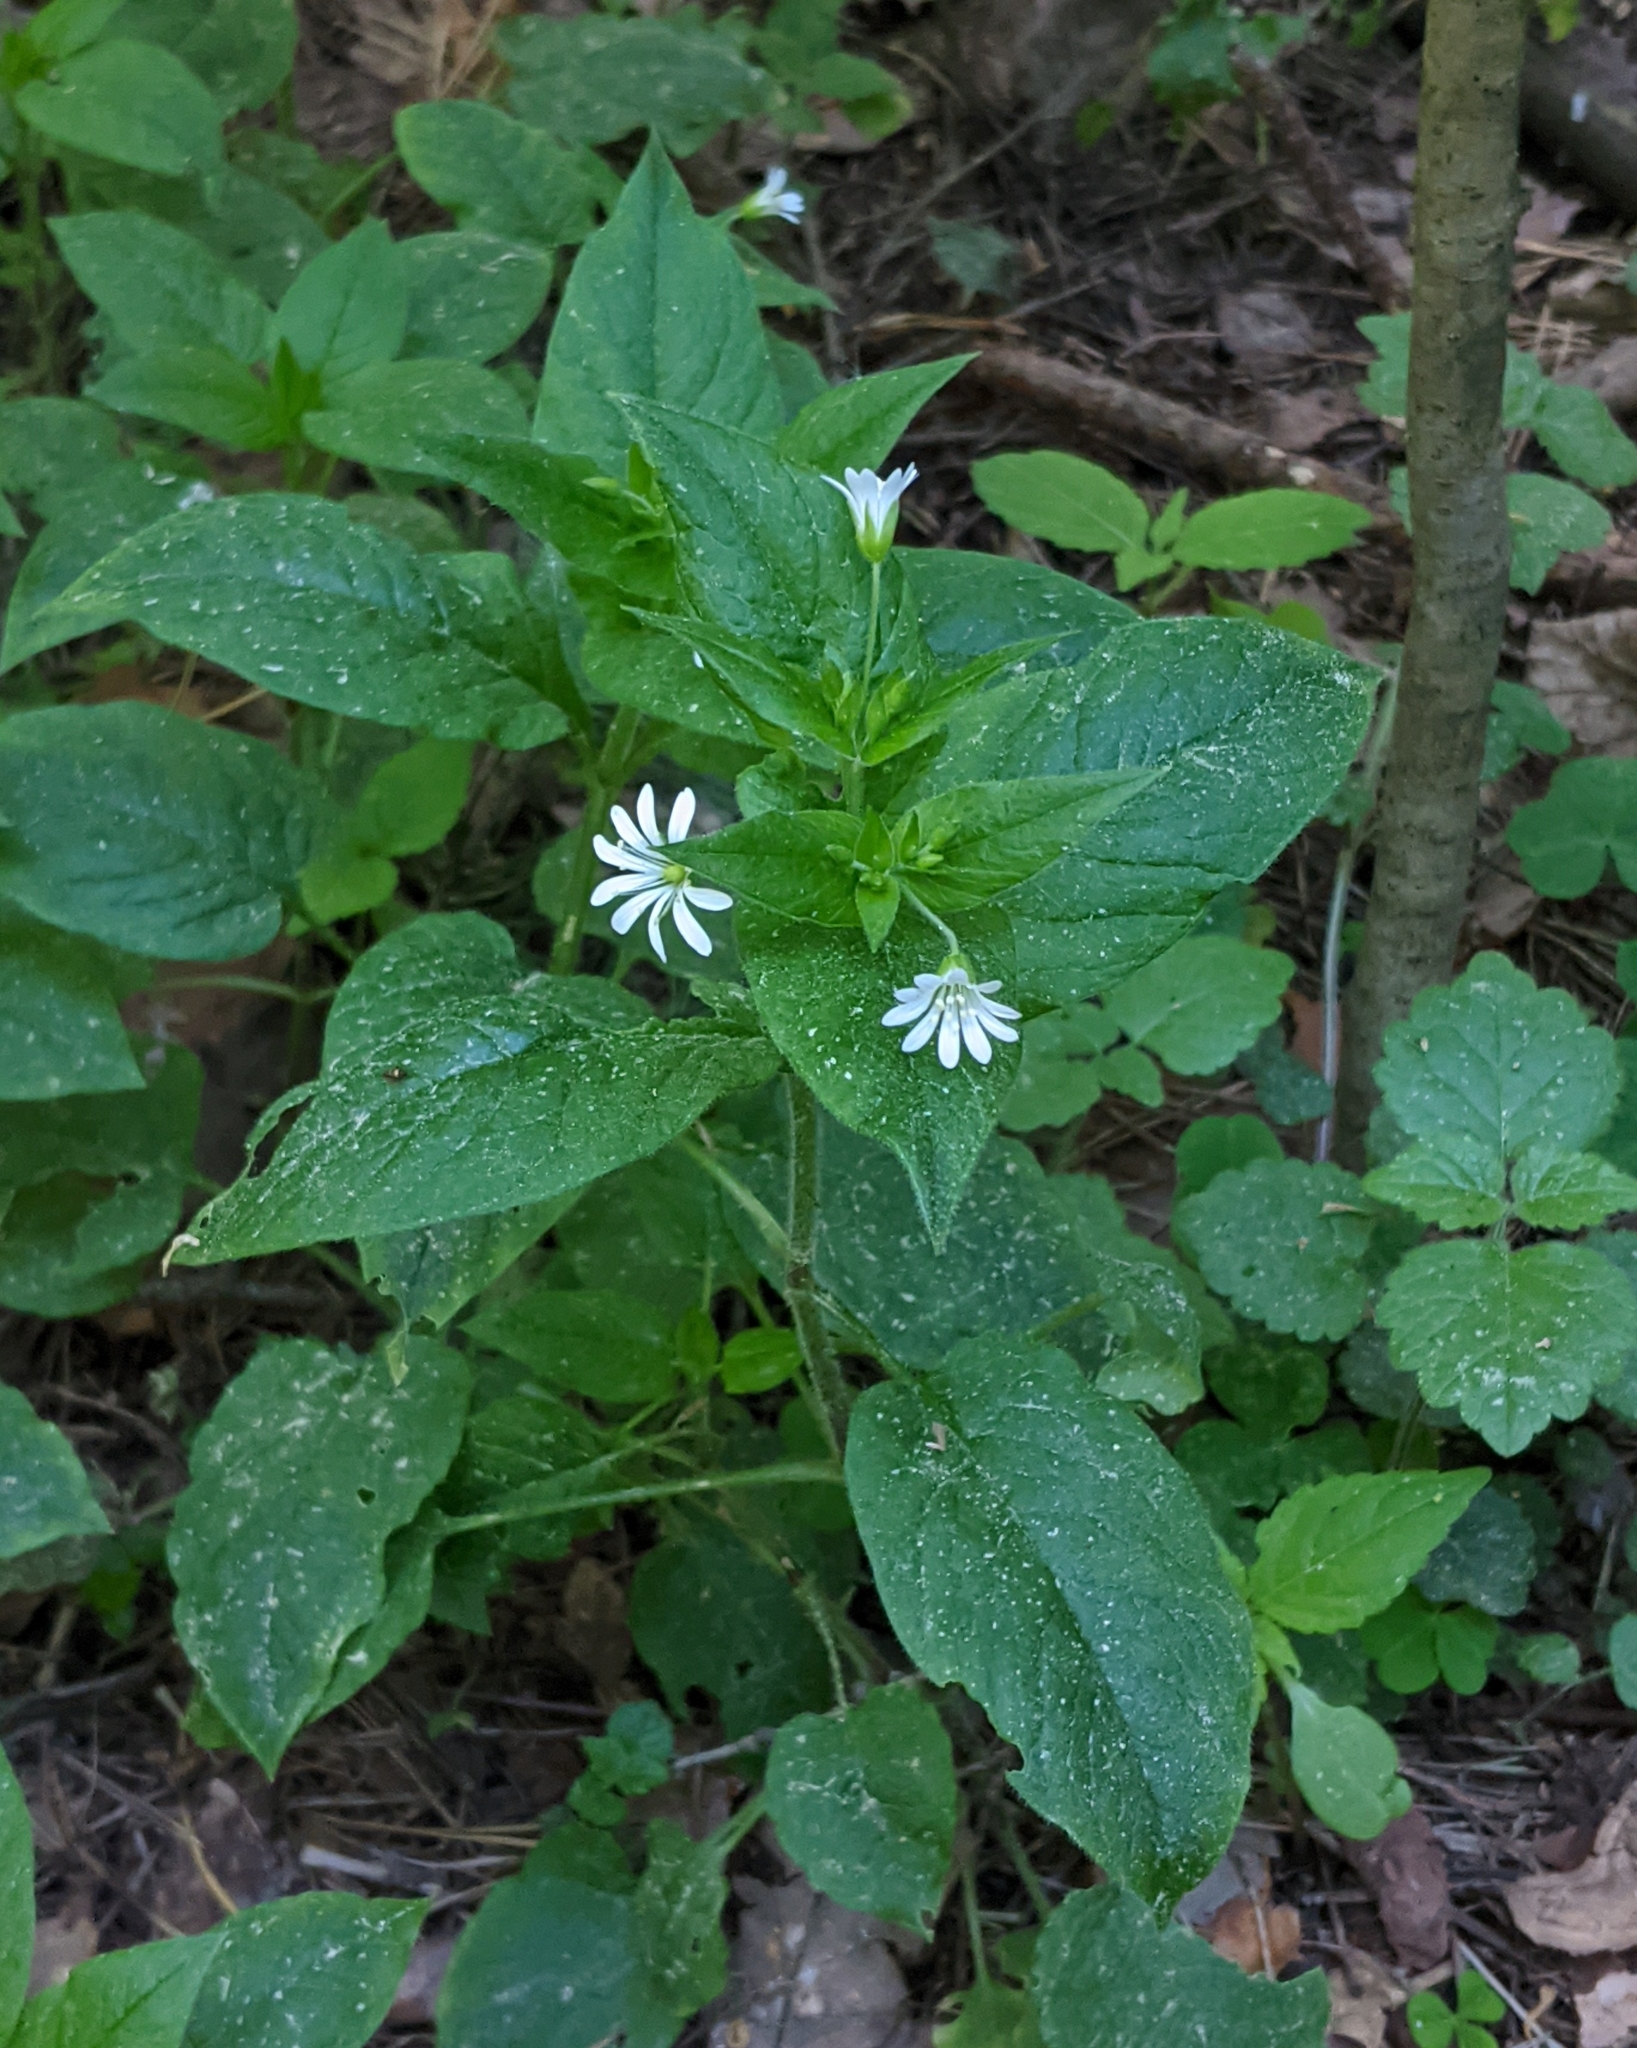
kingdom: Plantae
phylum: Tracheophyta
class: Magnoliopsida
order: Caryophyllales
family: Caryophyllaceae
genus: Stellaria
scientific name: Stellaria nemorum
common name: Wood stitchwort
